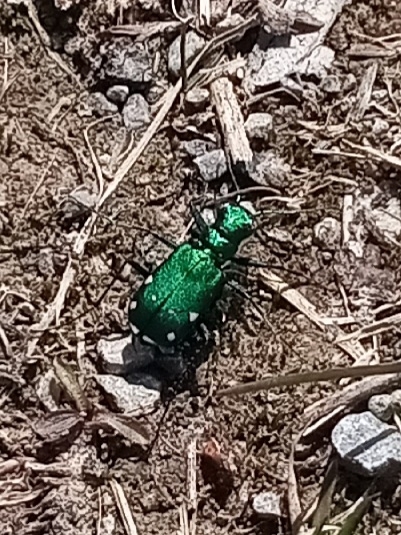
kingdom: Animalia
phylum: Arthropoda
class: Insecta
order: Coleoptera
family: Carabidae
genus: Cicindela
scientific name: Cicindela sexguttata
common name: Six-spotted tiger beetle
